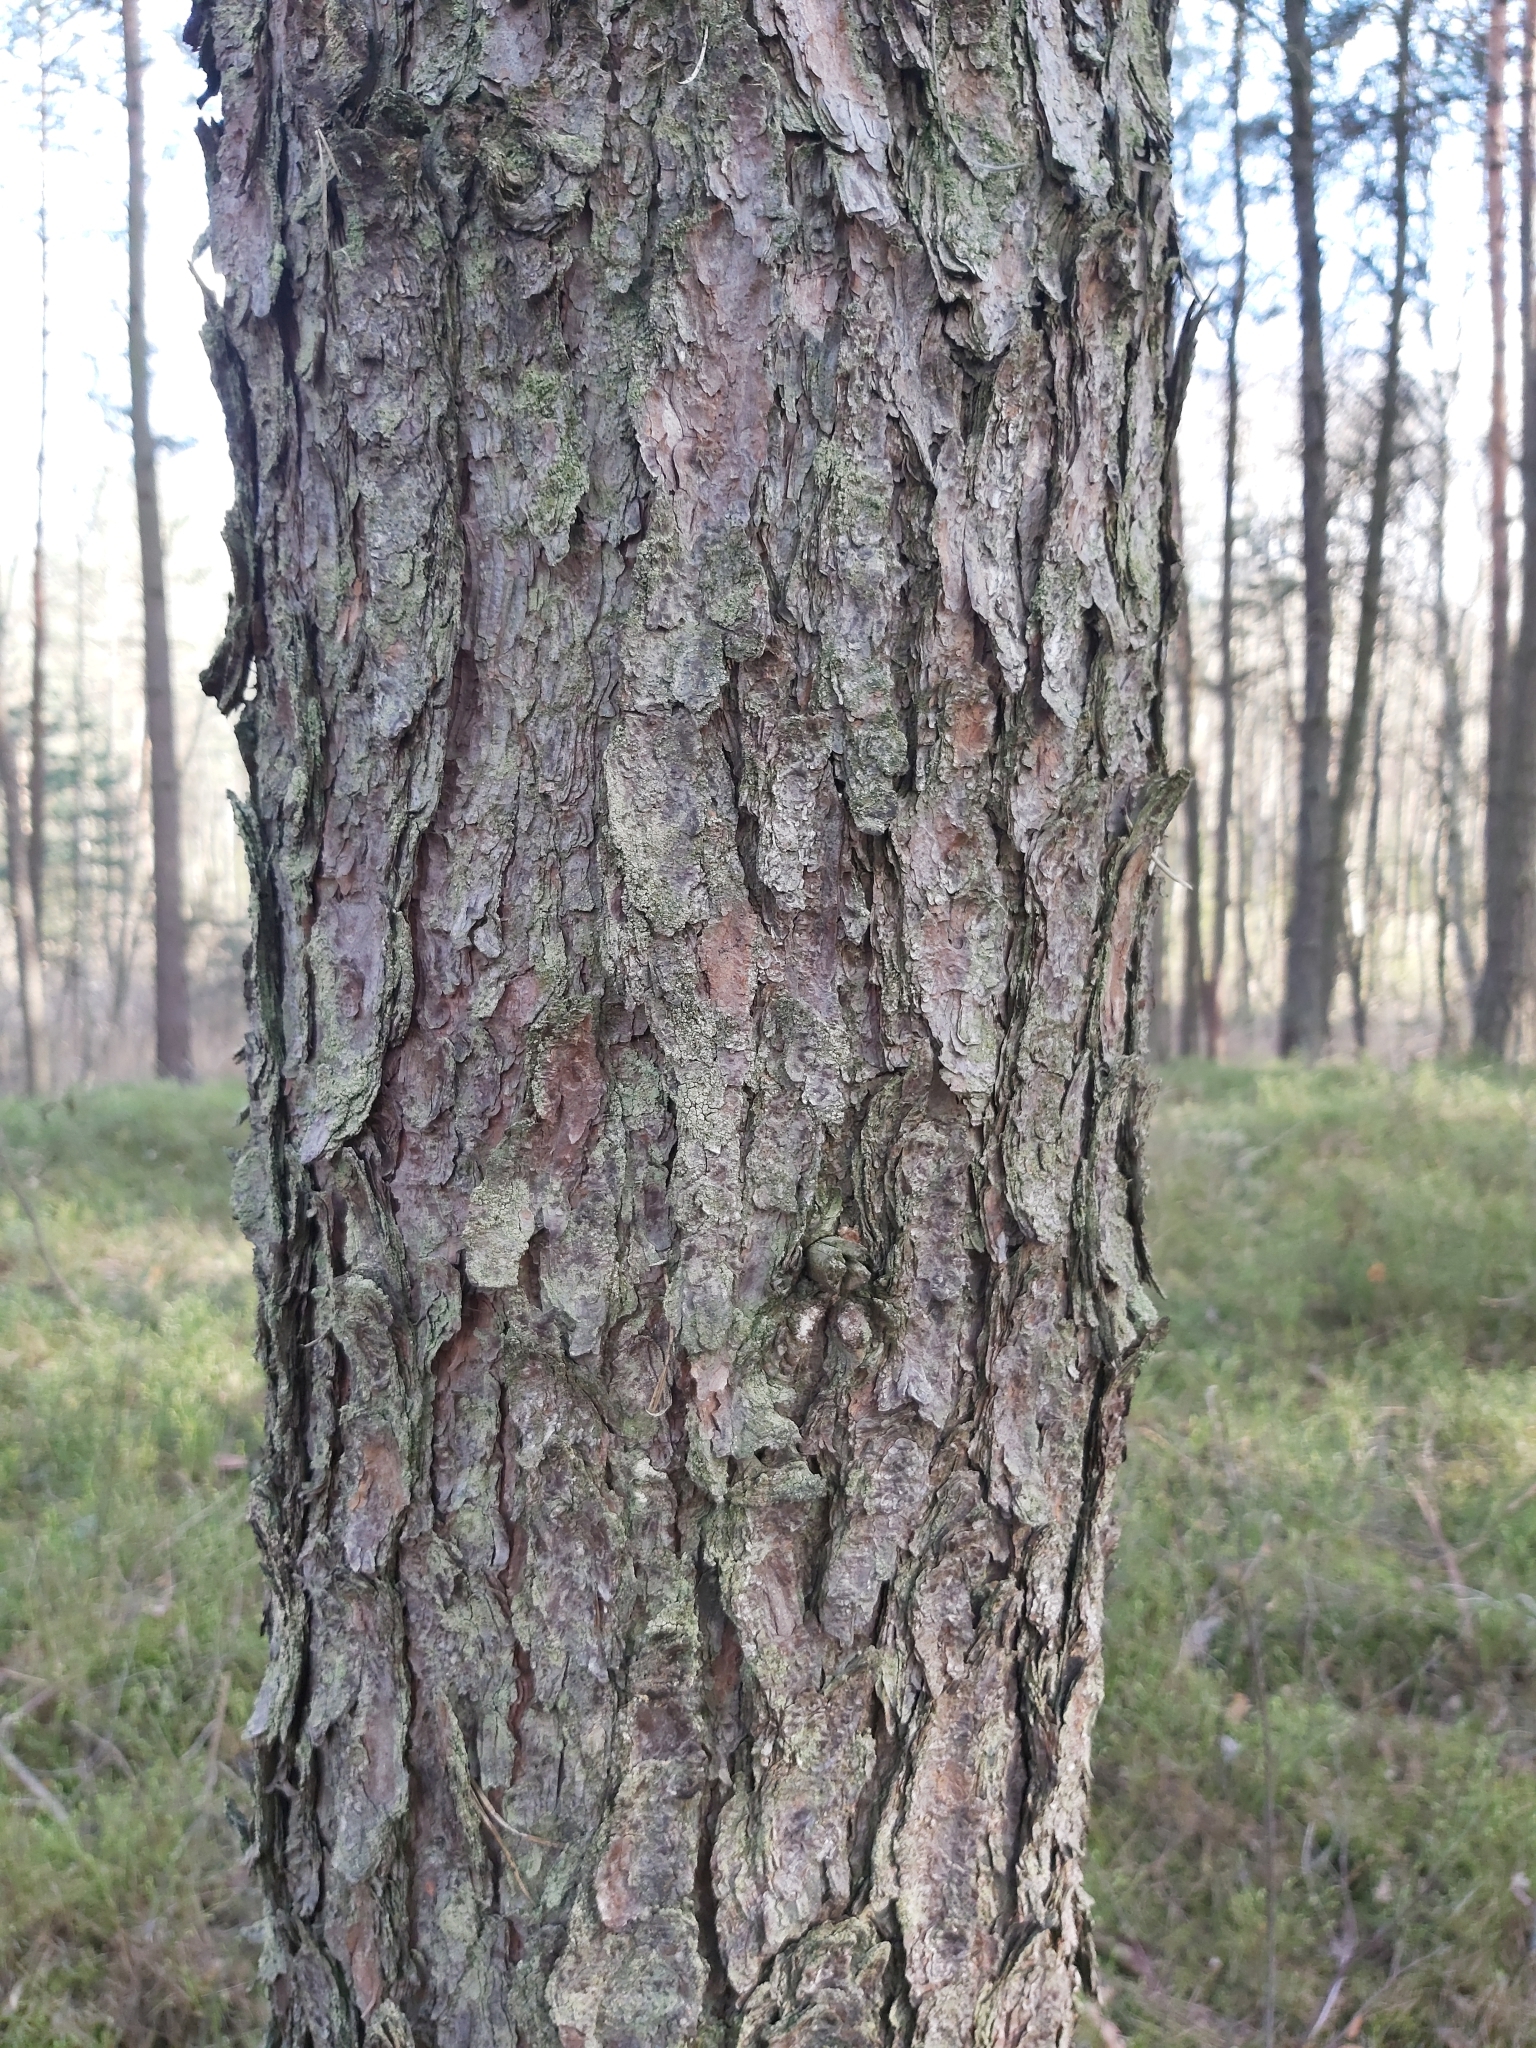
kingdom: Plantae
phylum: Tracheophyta
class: Pinopsida
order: Pinales
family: Pinaceae
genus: Pinus
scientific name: Pinus banksiana
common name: Jack pine
